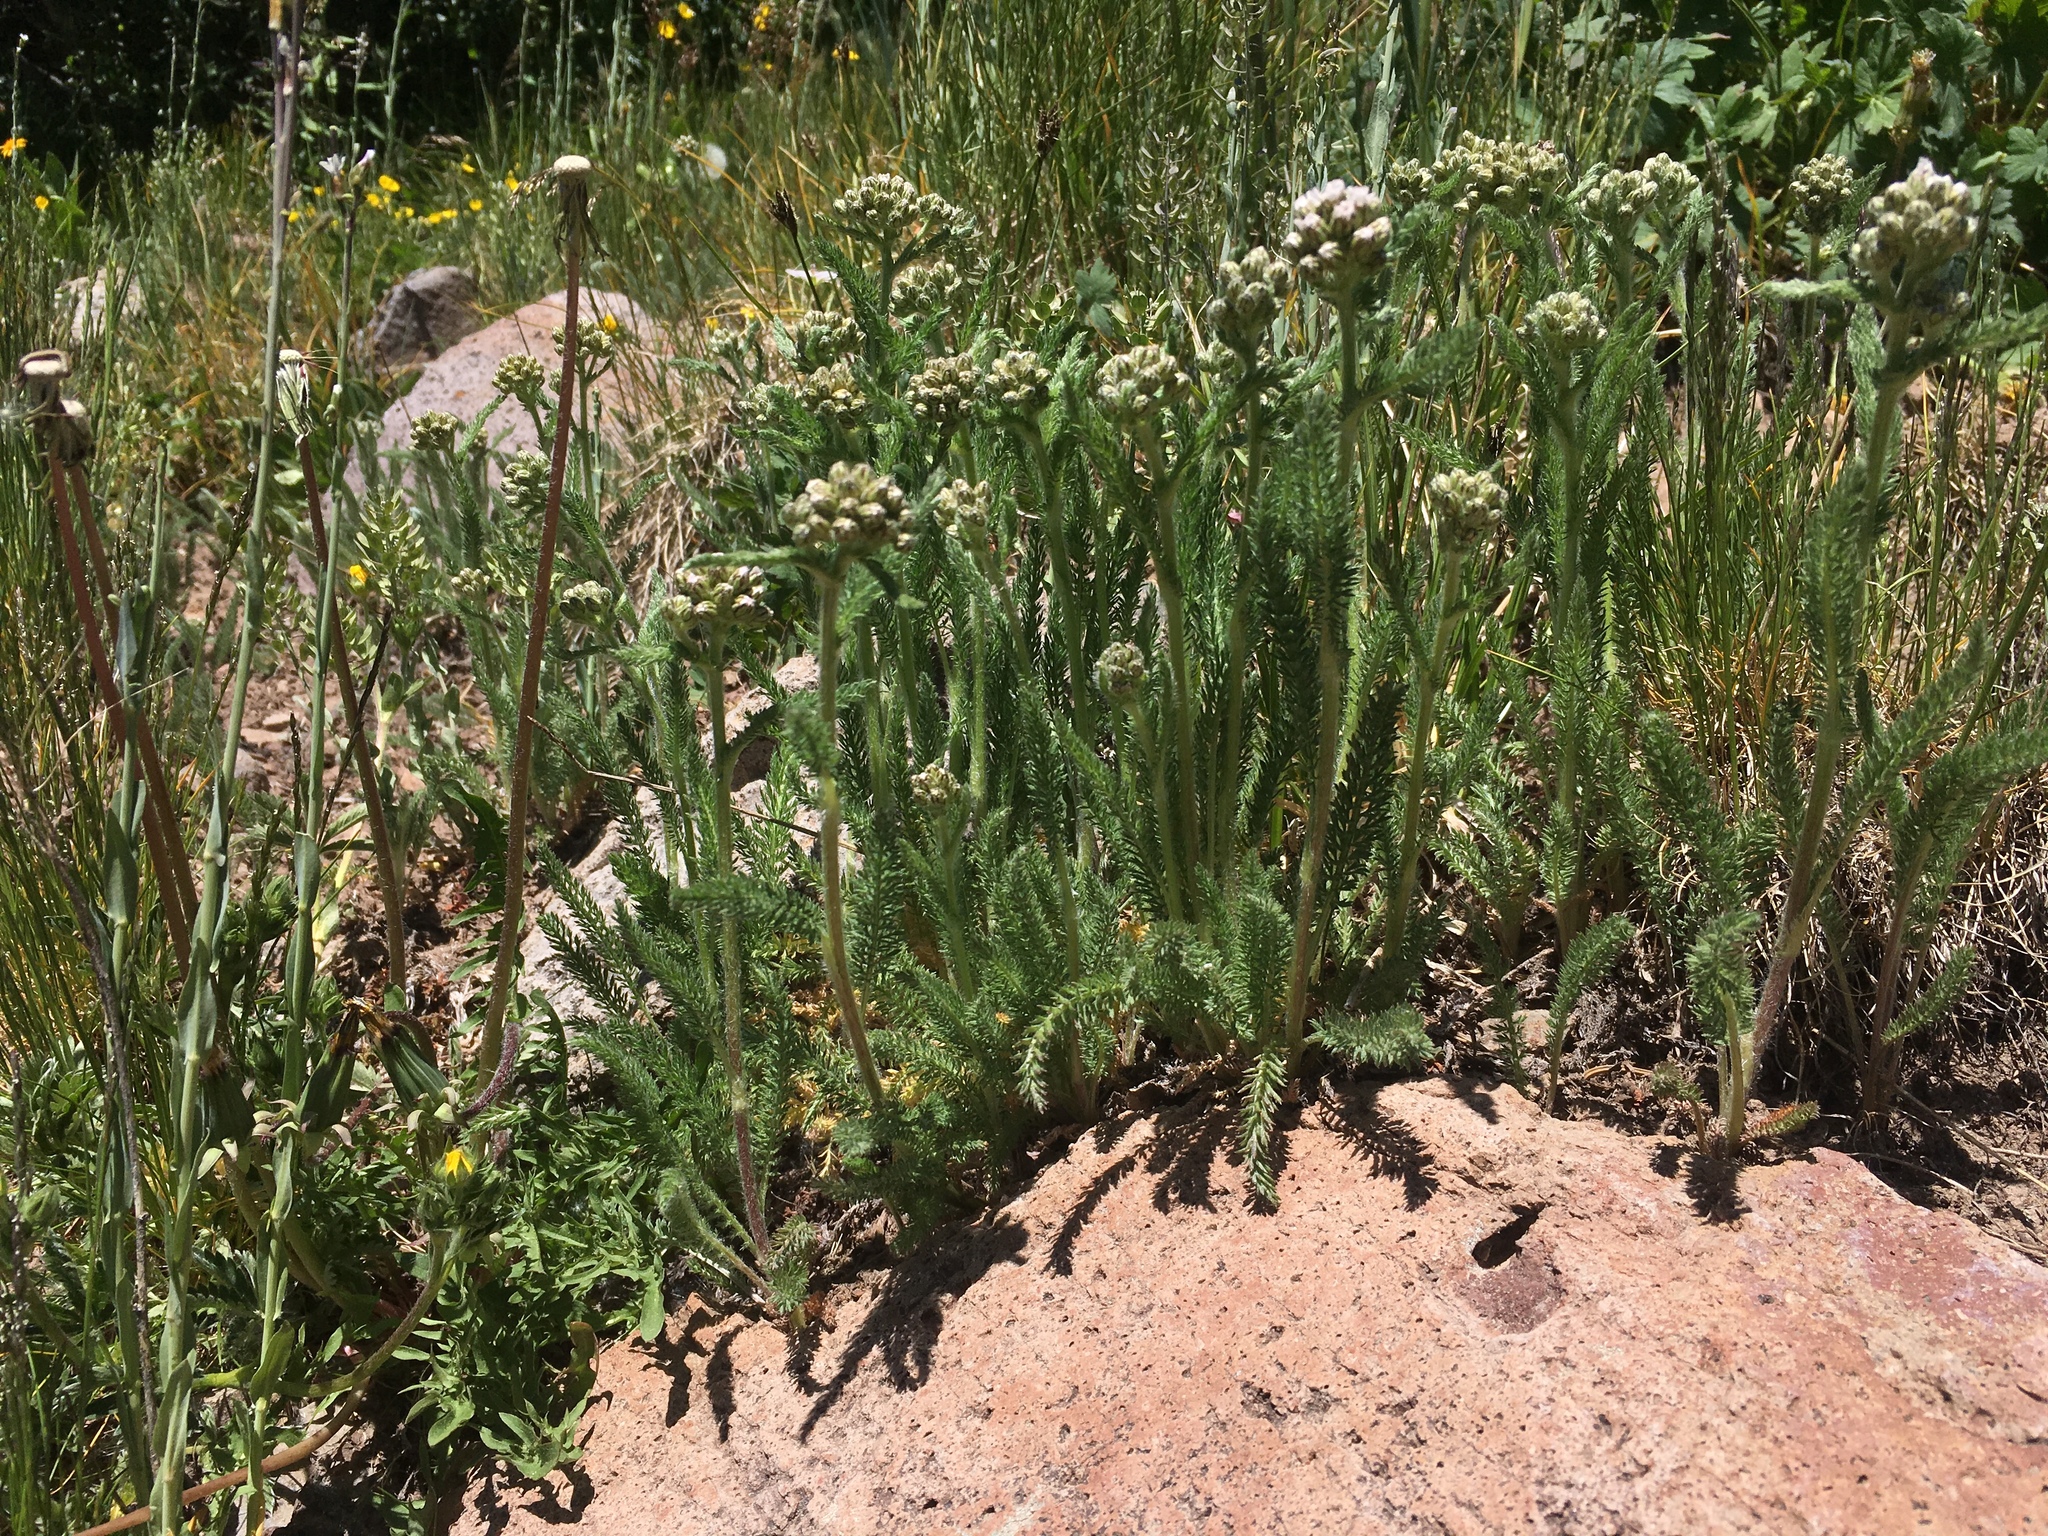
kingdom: Plantae
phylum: Tracheophyta
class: Magnoliopsida
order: Asterales
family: Asteraceae
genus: Achillea
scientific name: Achillea millefolium
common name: Yarrow
